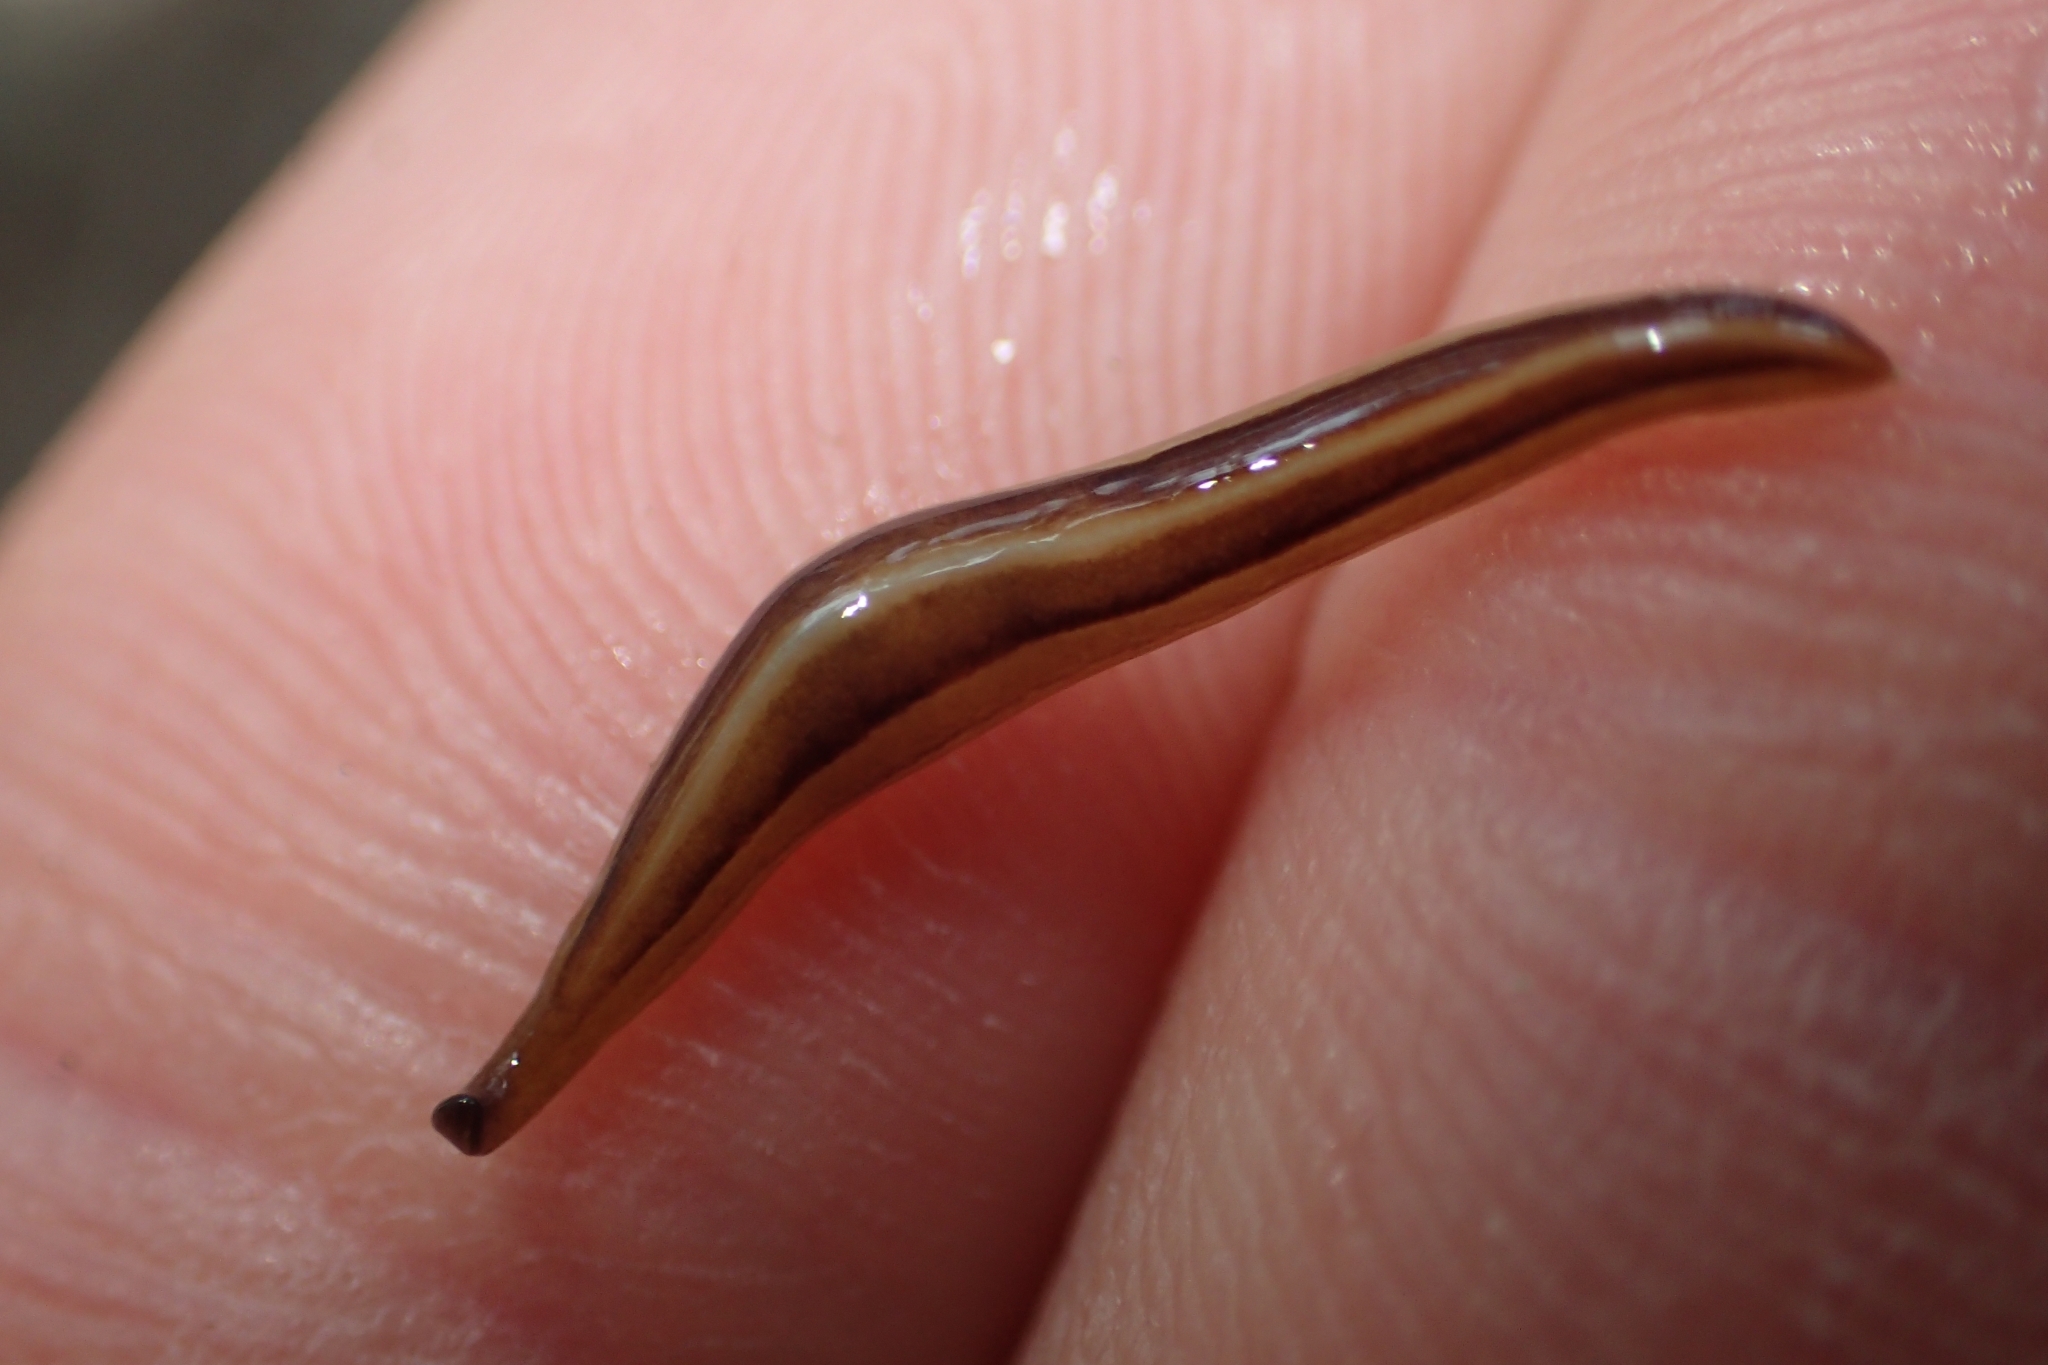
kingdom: Animalia
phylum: Platyhelminthes
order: Tricladida
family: Geoplanidae
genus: Australopacifica
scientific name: Australopacifica scaphoidea
